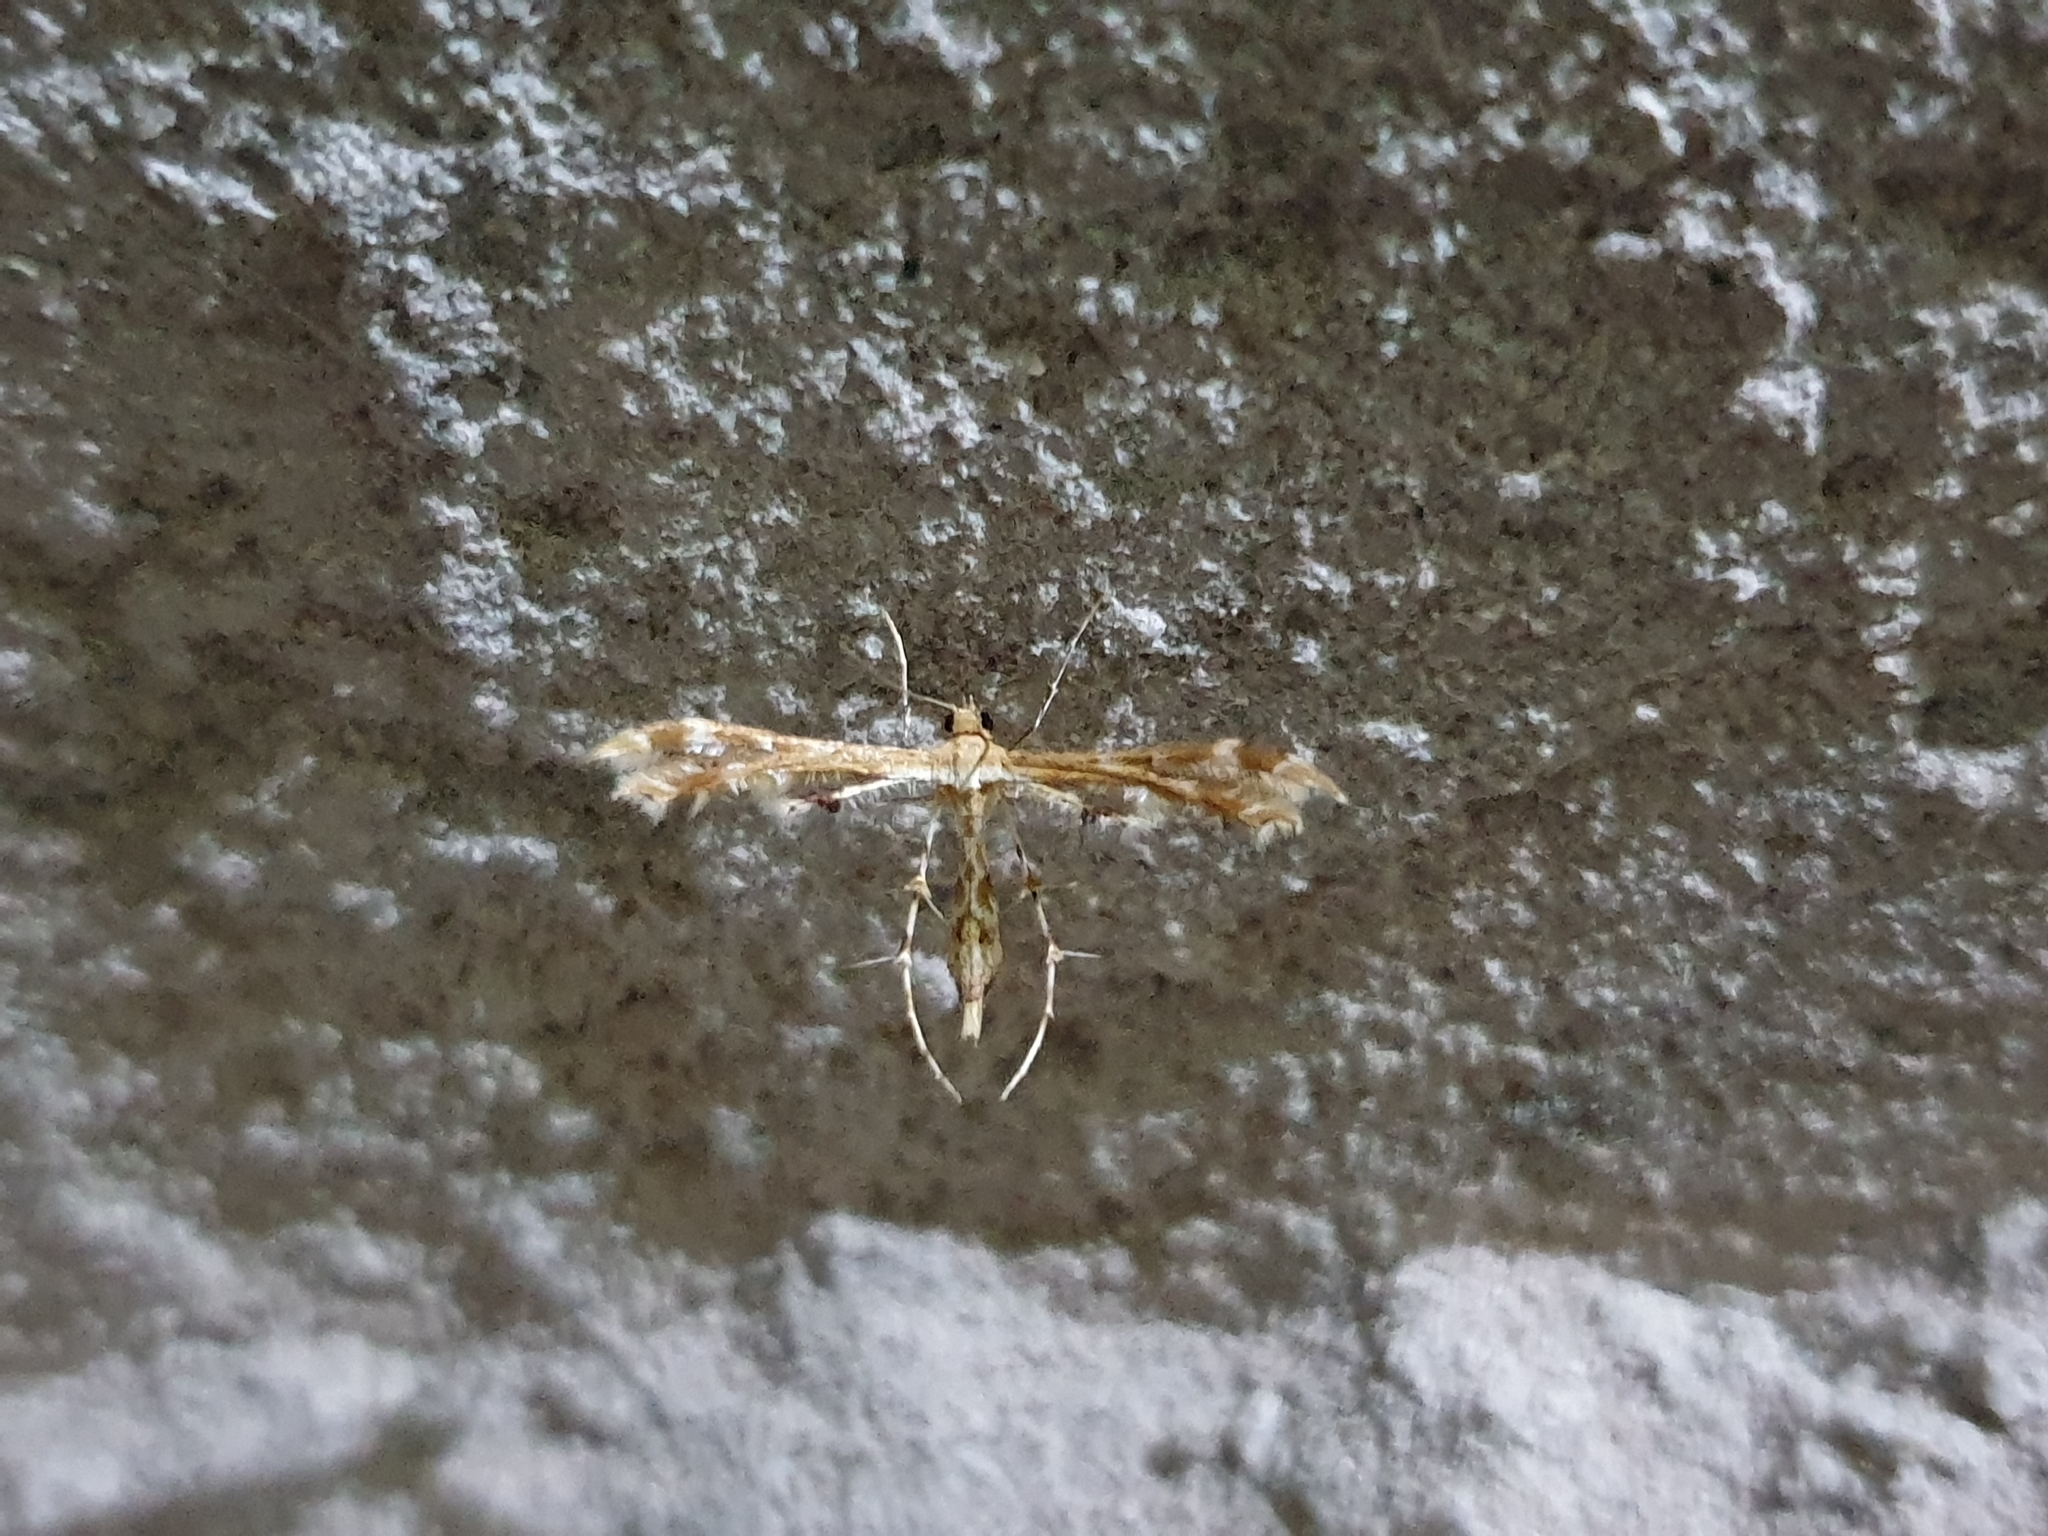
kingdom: Animalia
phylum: Arthropoda
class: Insecta
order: Lepidoptera
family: Pterophoridae
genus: Sphenarches
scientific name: Sphenarches anisodactylus
